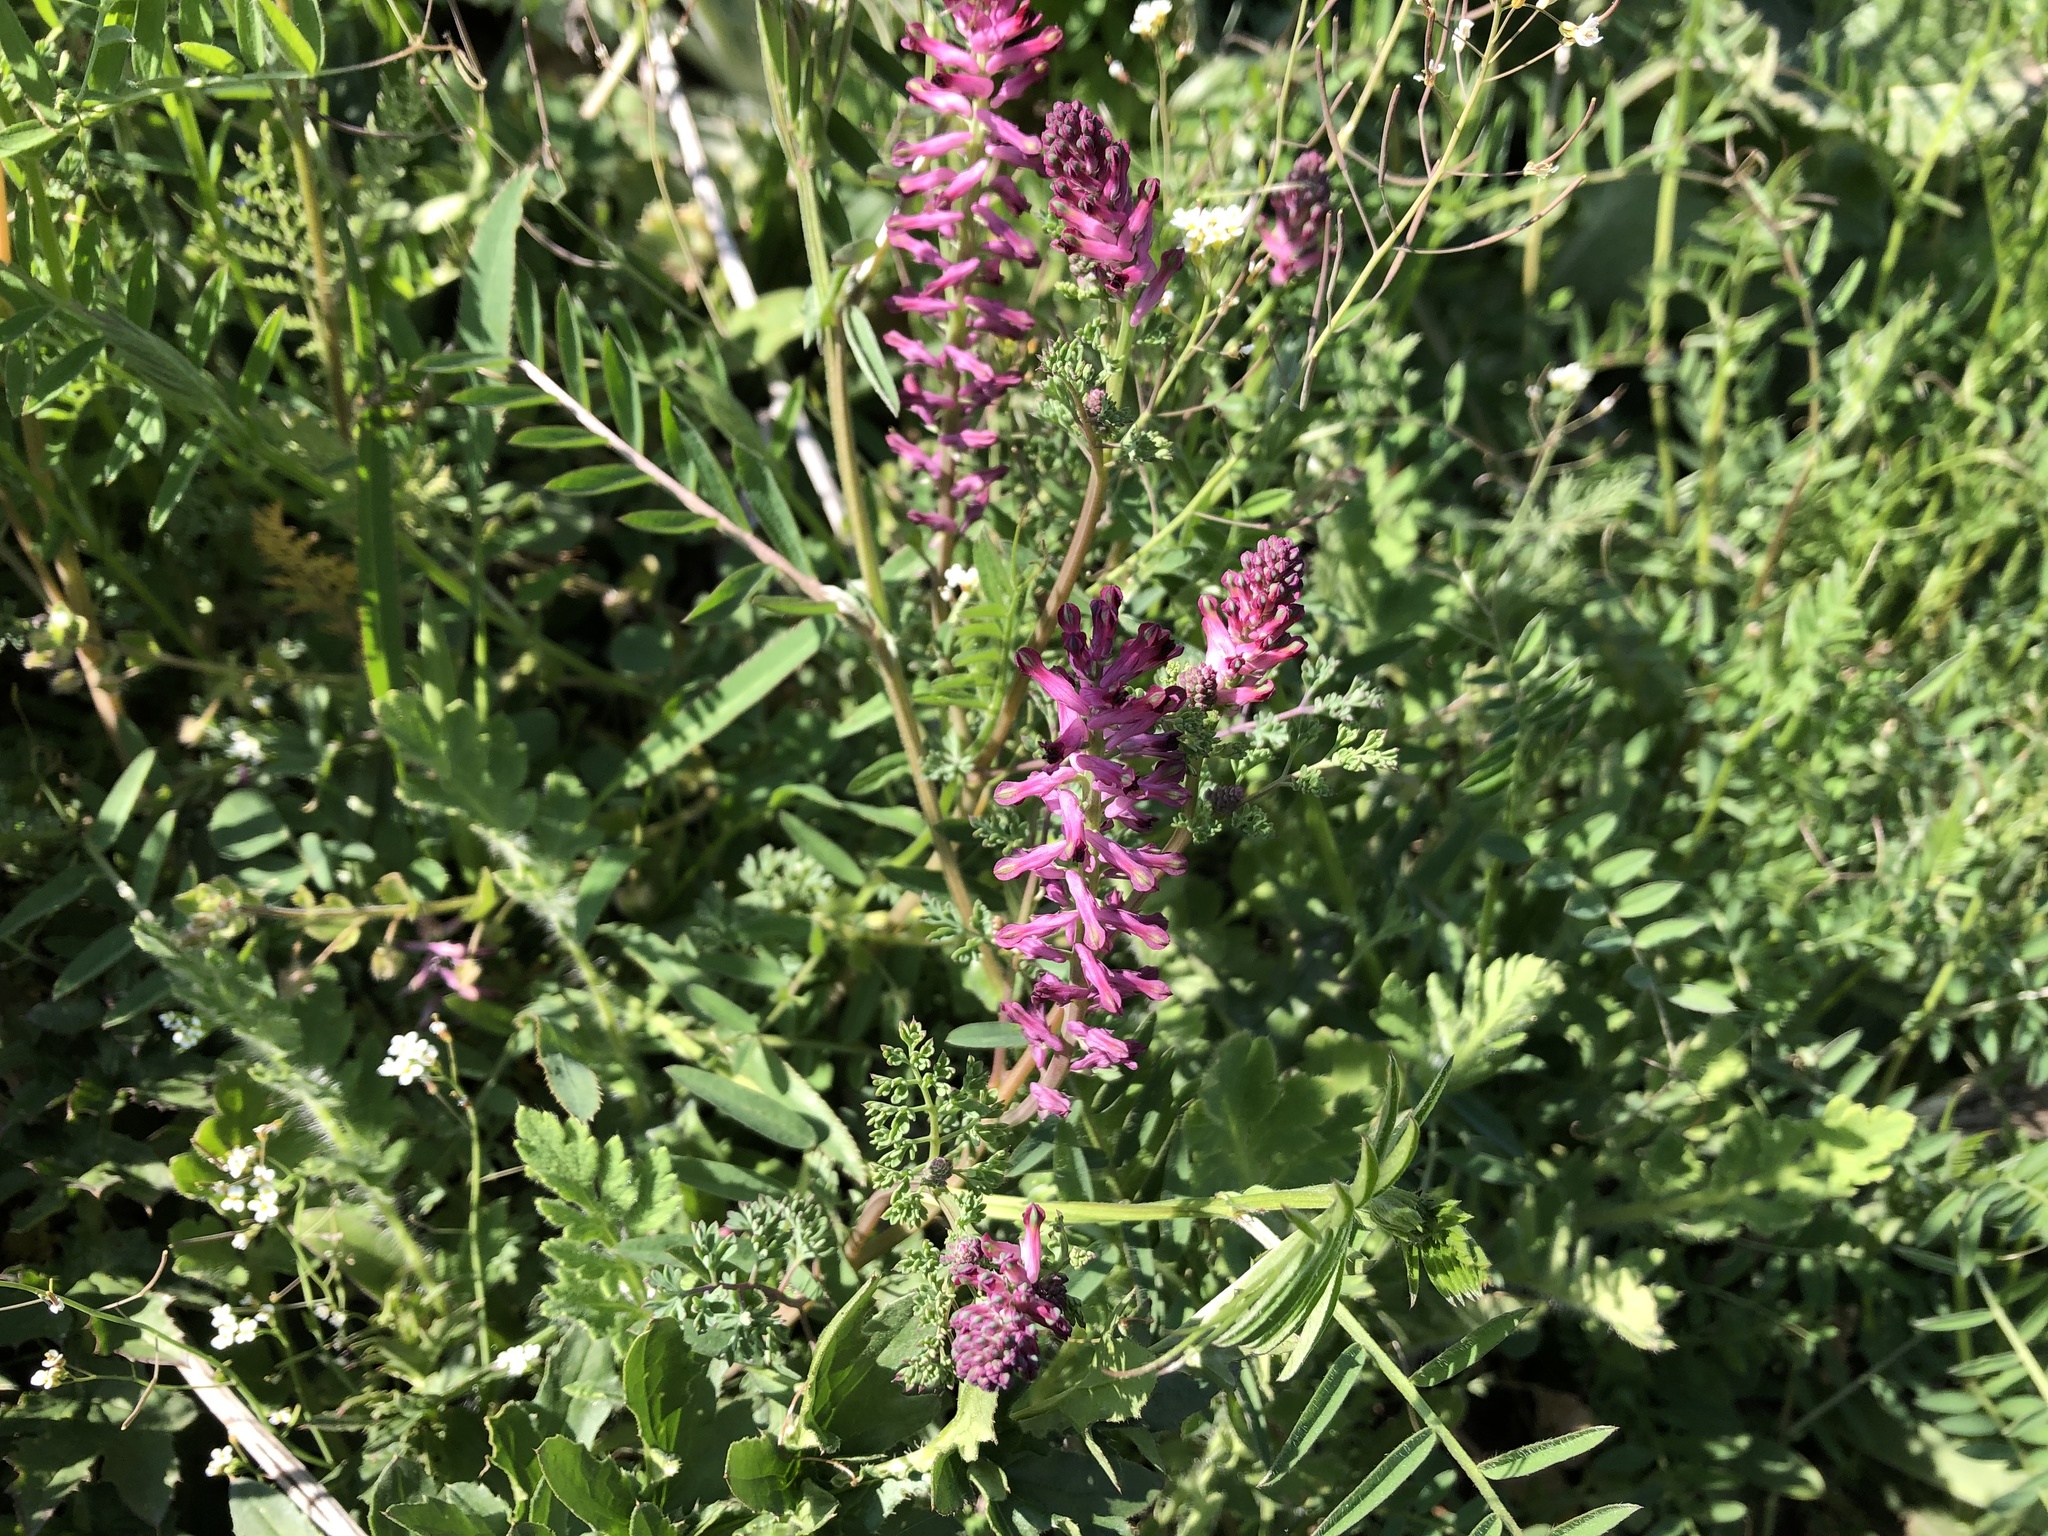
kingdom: Plantae
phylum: Tracheophyta
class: Magnoliopsida
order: Ranunculales
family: Papaveraceae
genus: Fumaria
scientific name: Fumaria officinalis
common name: Common fumitory
